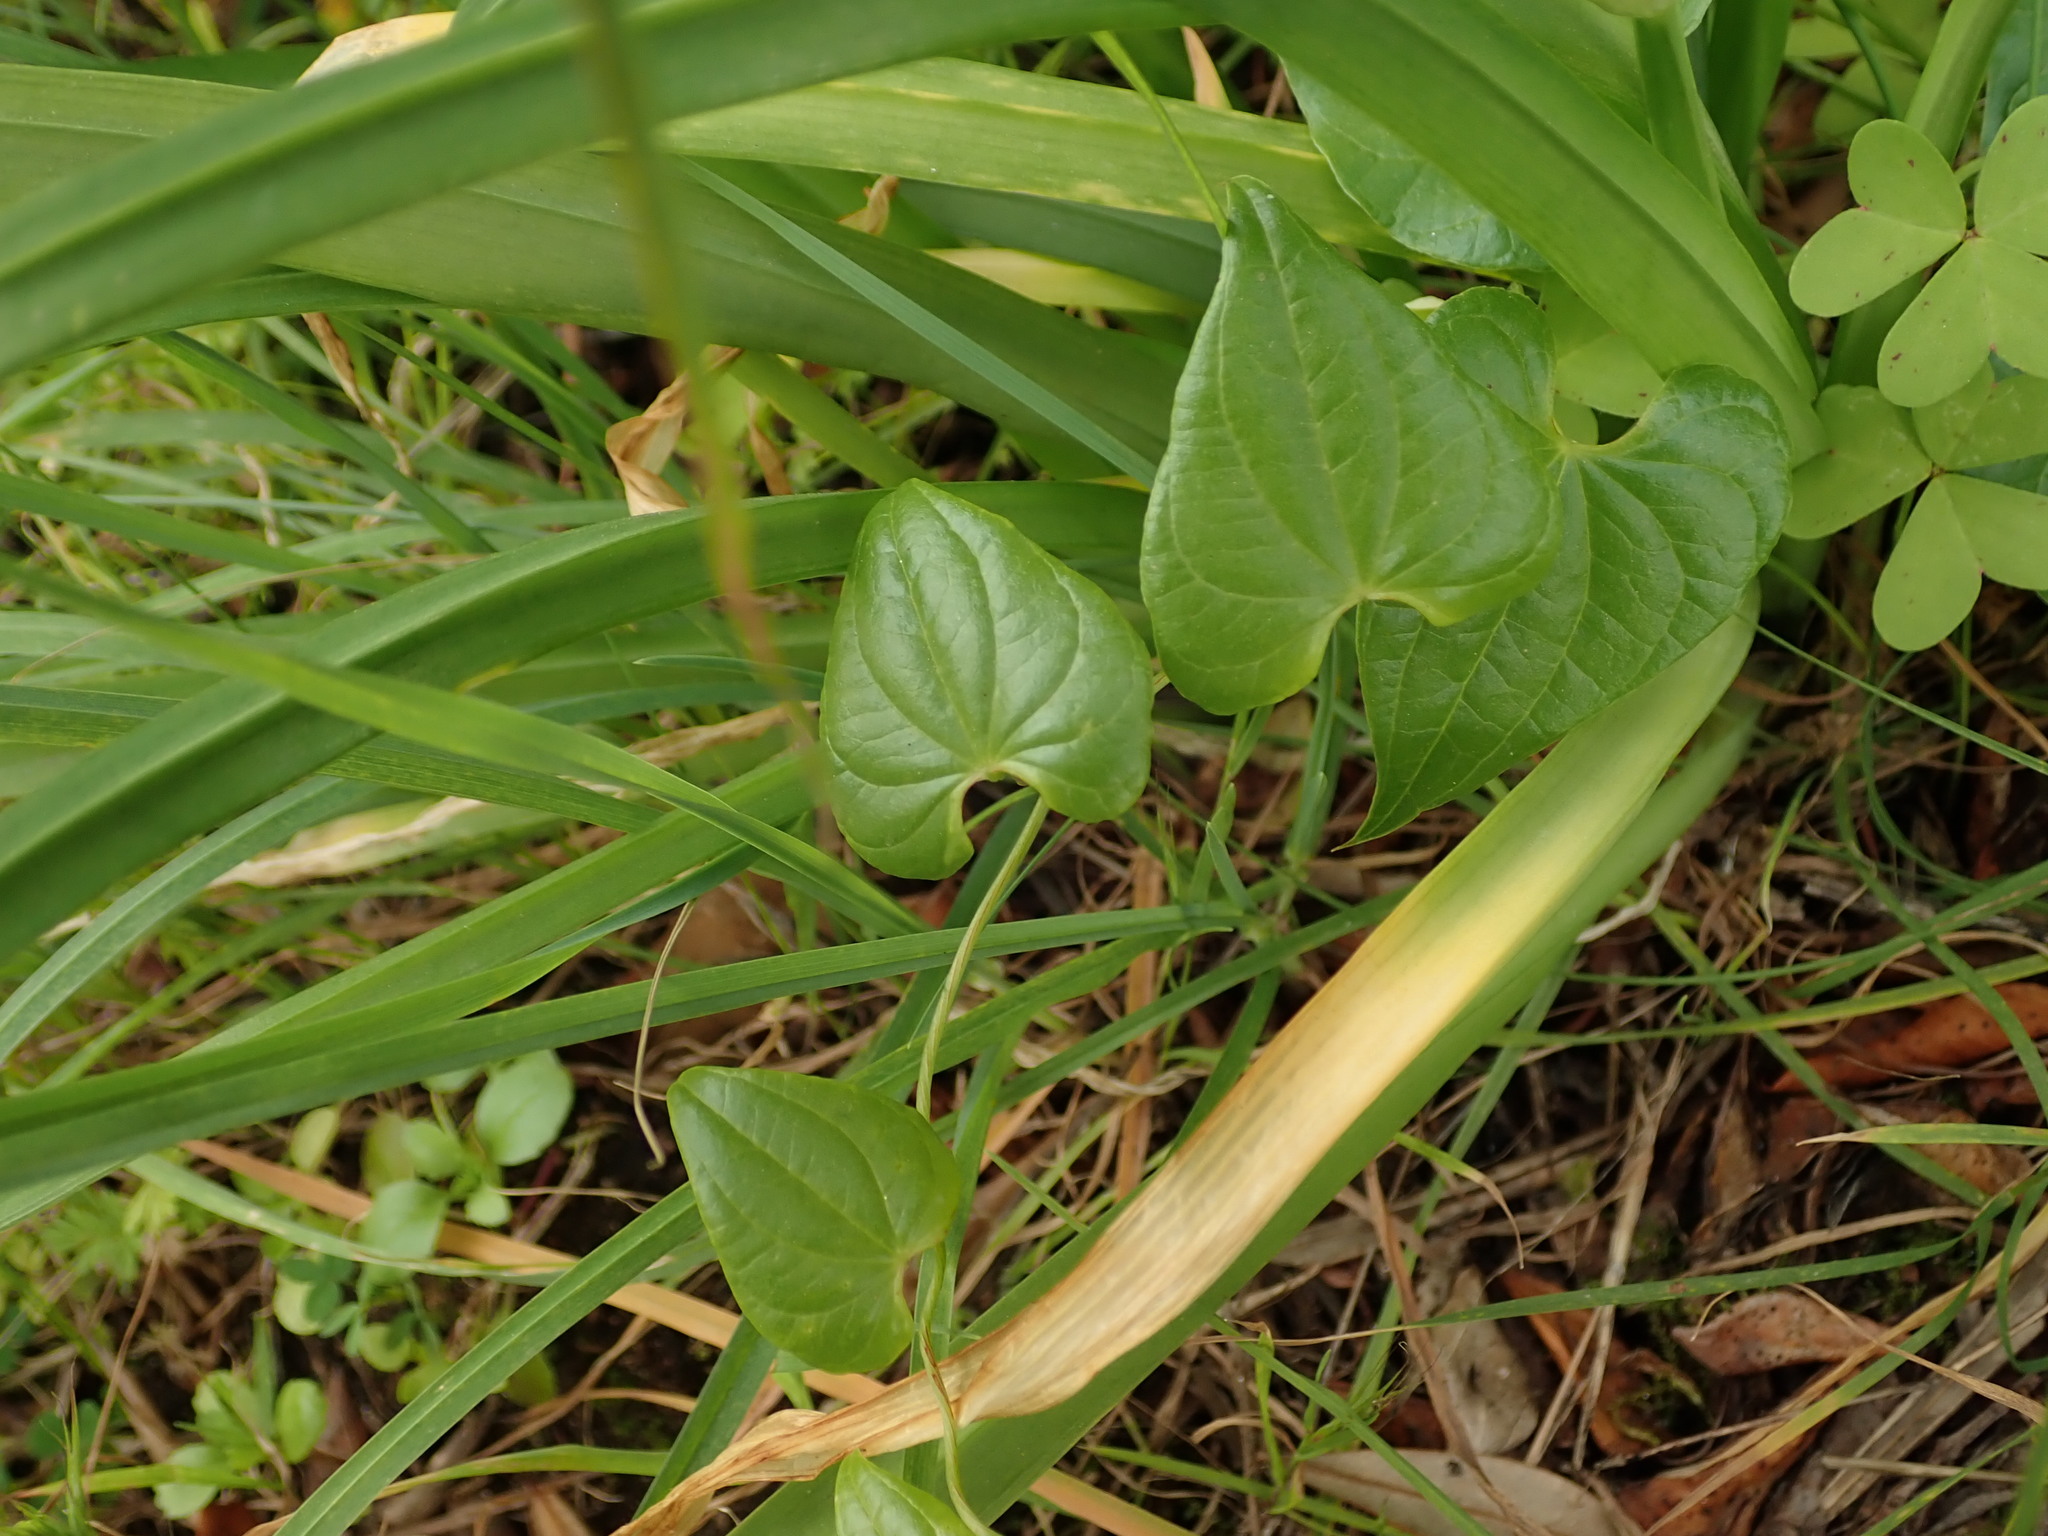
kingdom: Plantae
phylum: Tracheophyta
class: Liliopsida
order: Dioscoreales
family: Dioscoreaceae
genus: Dioscorea
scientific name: Dioscorea communis
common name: Black-bindweed
